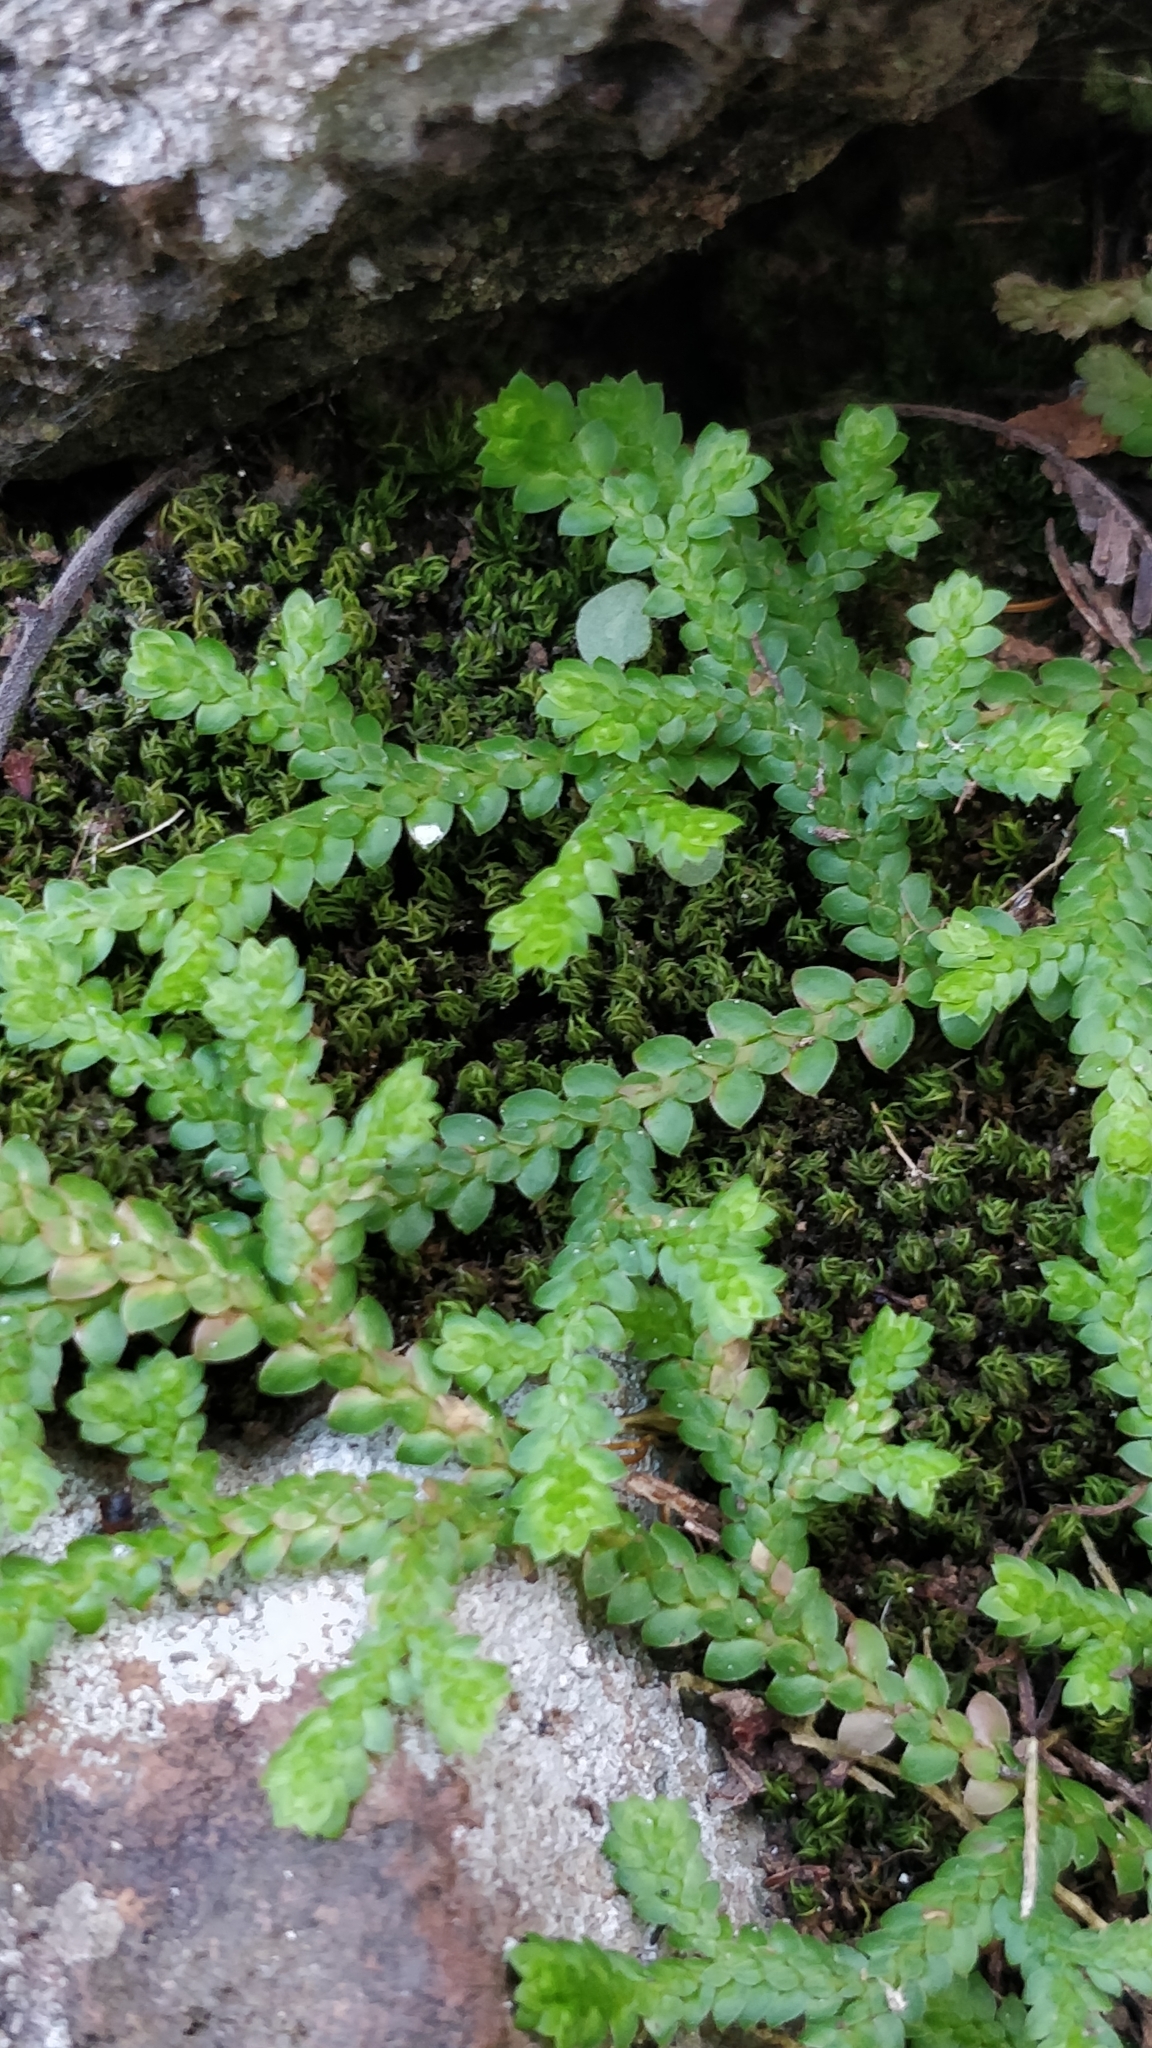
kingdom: Plantae
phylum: Tracheophyta
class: Lycopodiopsida
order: Selaginellales
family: Selaginellaceae
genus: Selaginella
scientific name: Selaginella denticulata
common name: Toothed-leaved clubmoss
